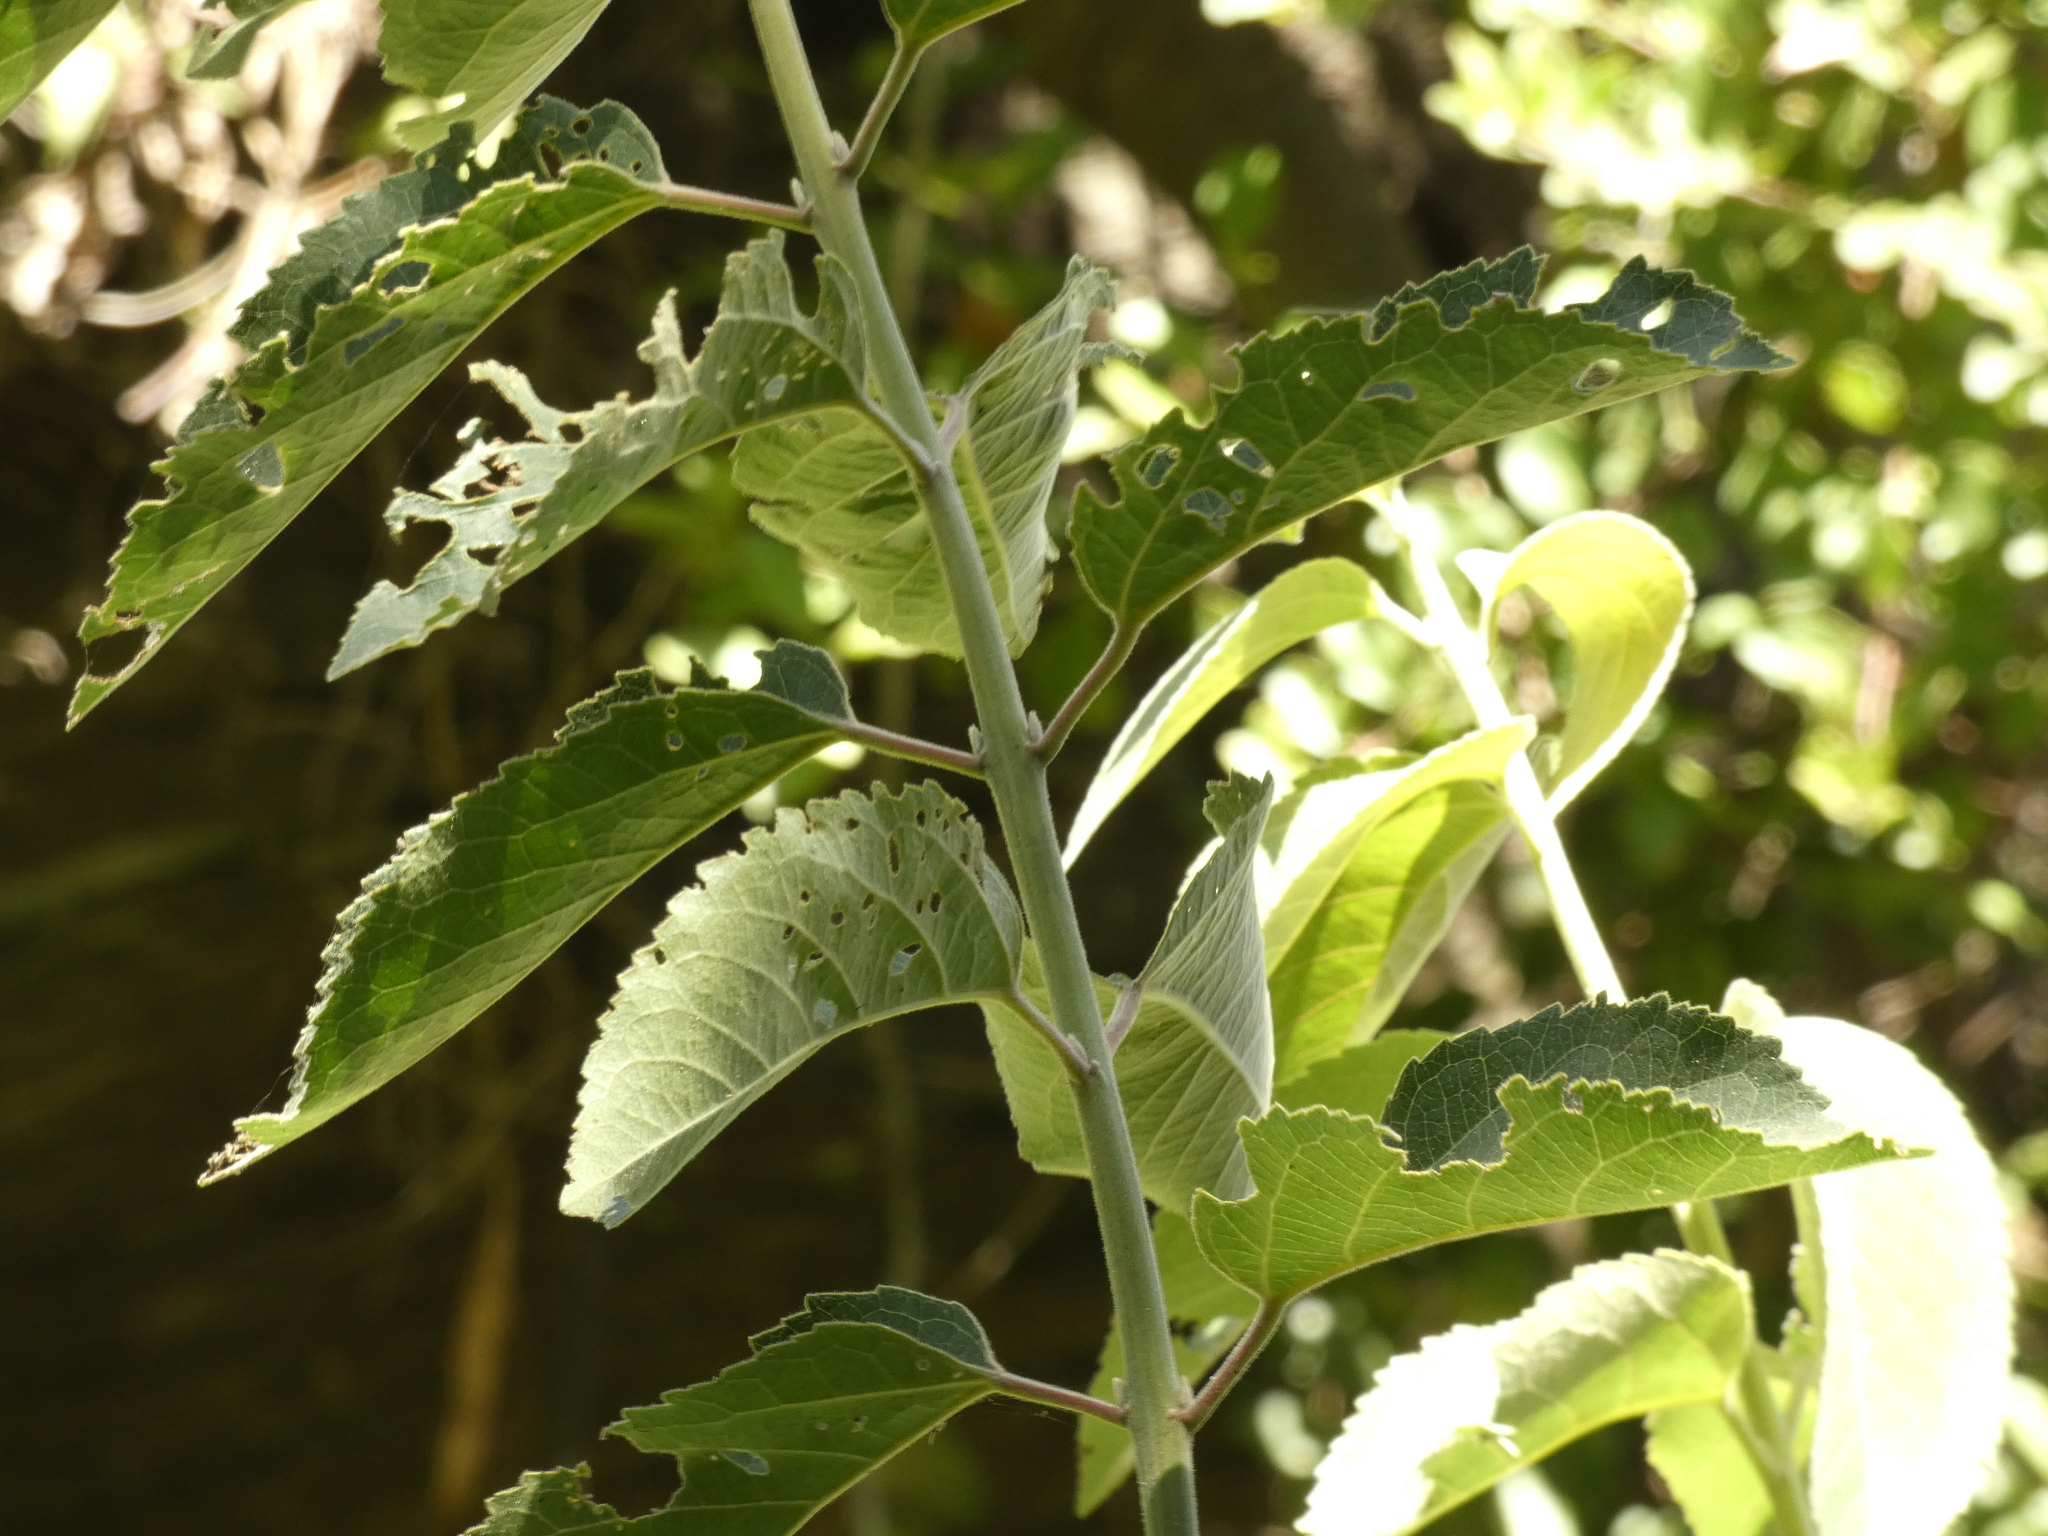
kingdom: Plantae
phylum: Tracheophyta
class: Magnoliopsida
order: Oxalidales
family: Elaeocarpaceae
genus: Aristotelia
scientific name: Aristotelia chilensis
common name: Maquei
